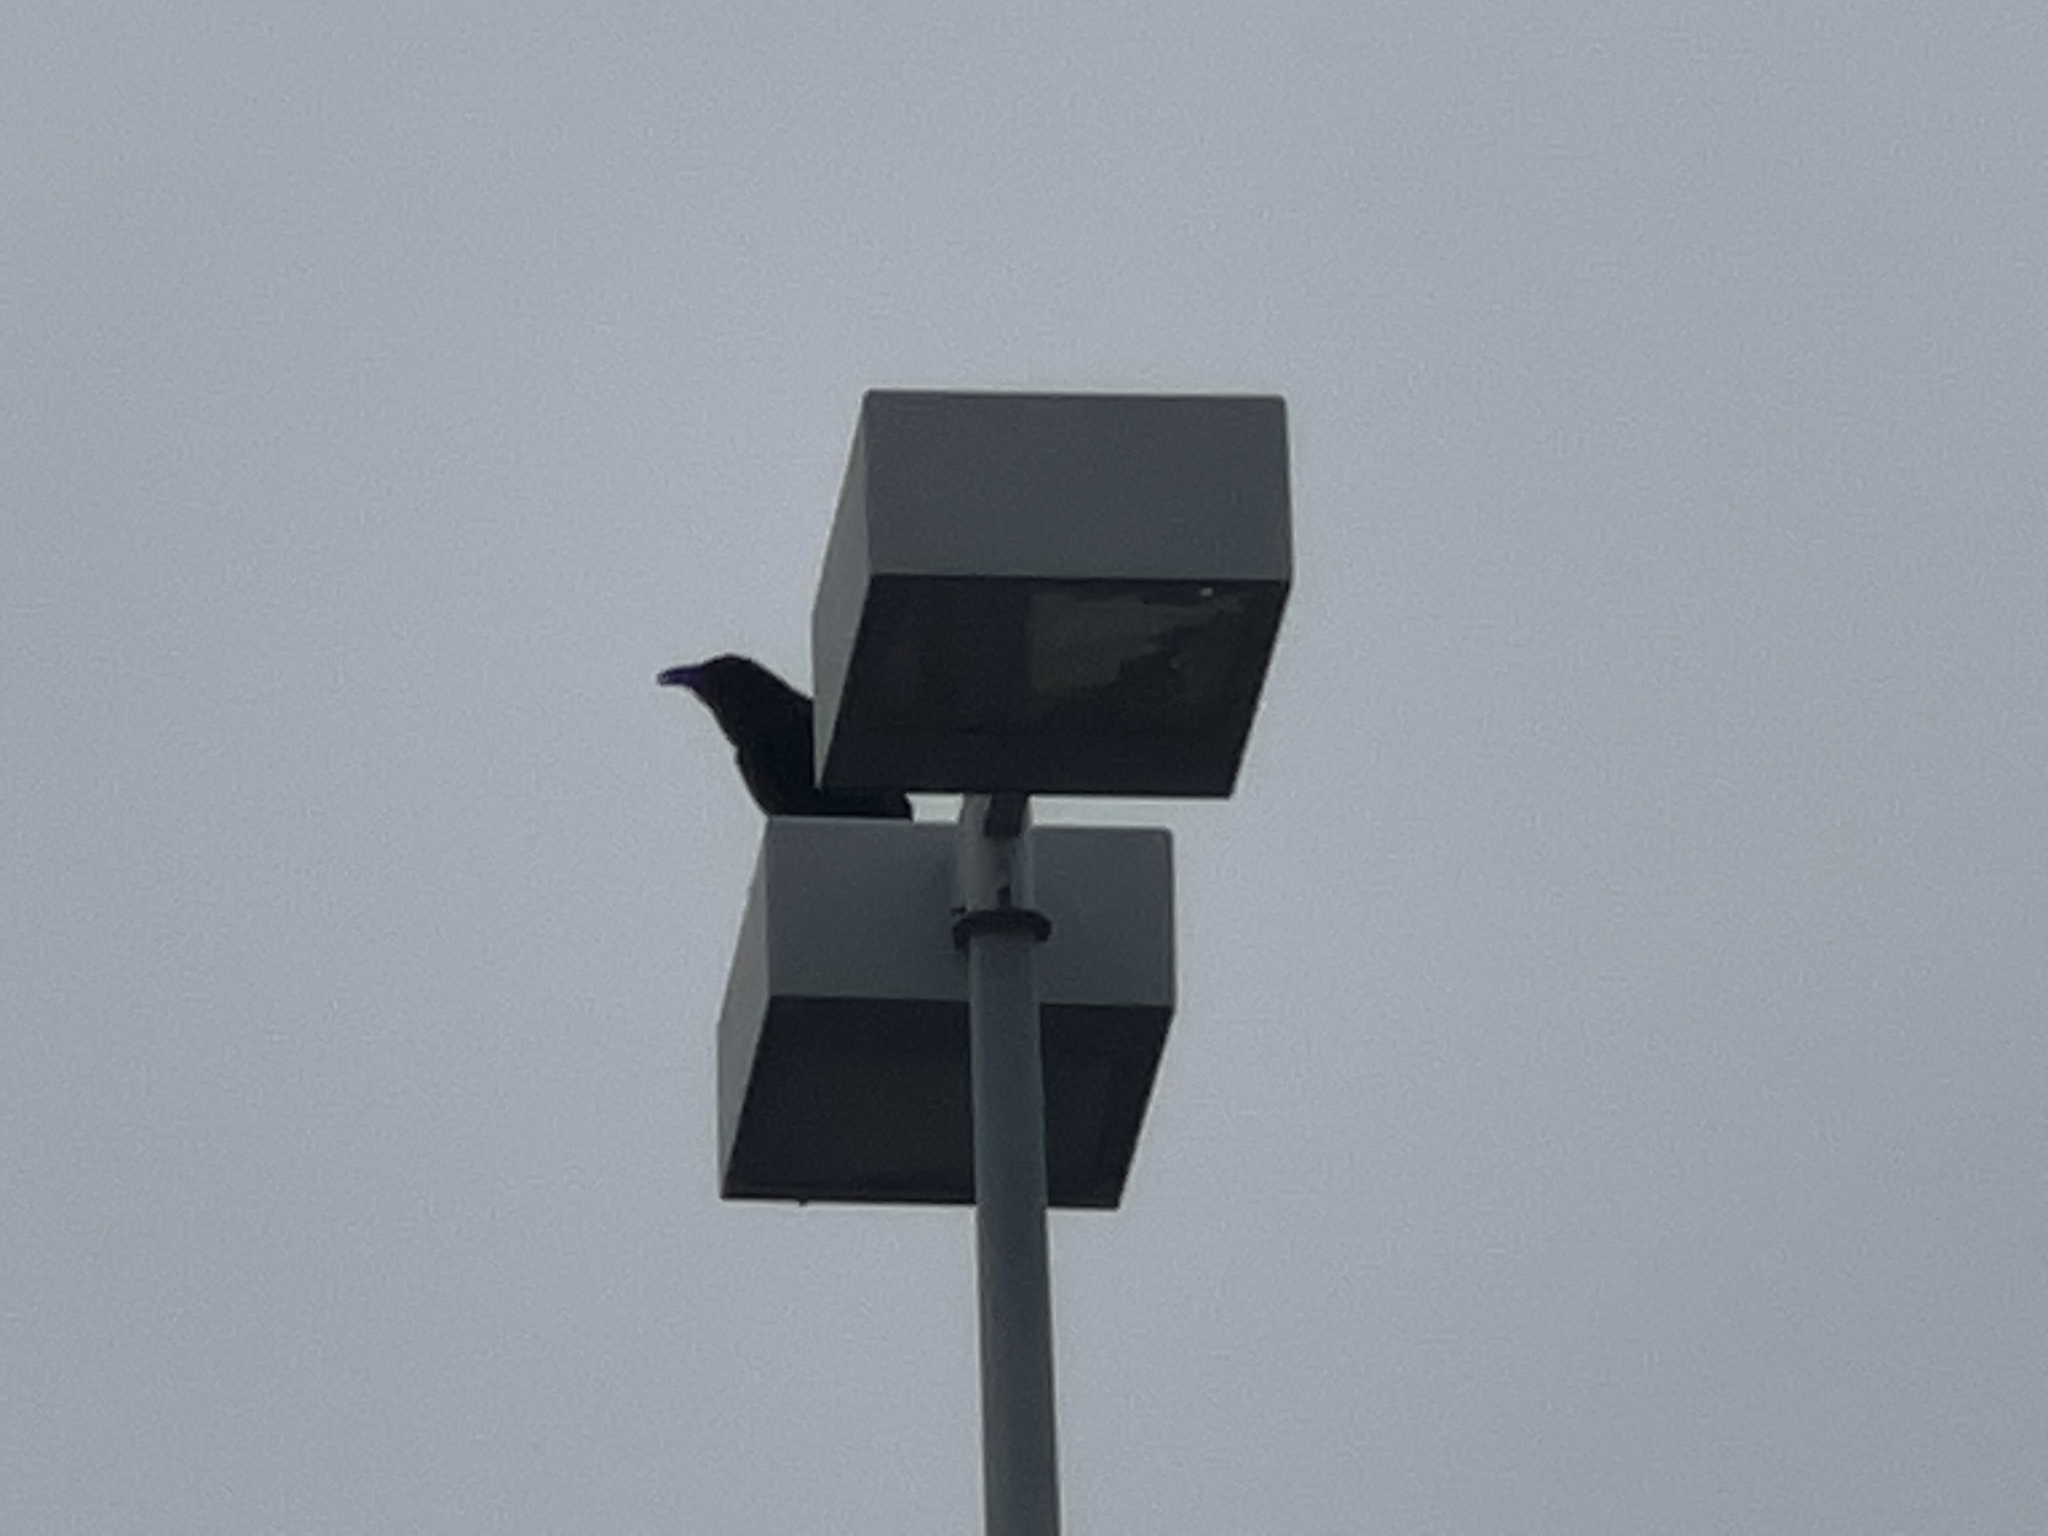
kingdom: Animalia
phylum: Chordata
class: Aves
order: Passeriformes
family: Corvidae
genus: Corvus
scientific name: Corvus corax
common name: Common raven
